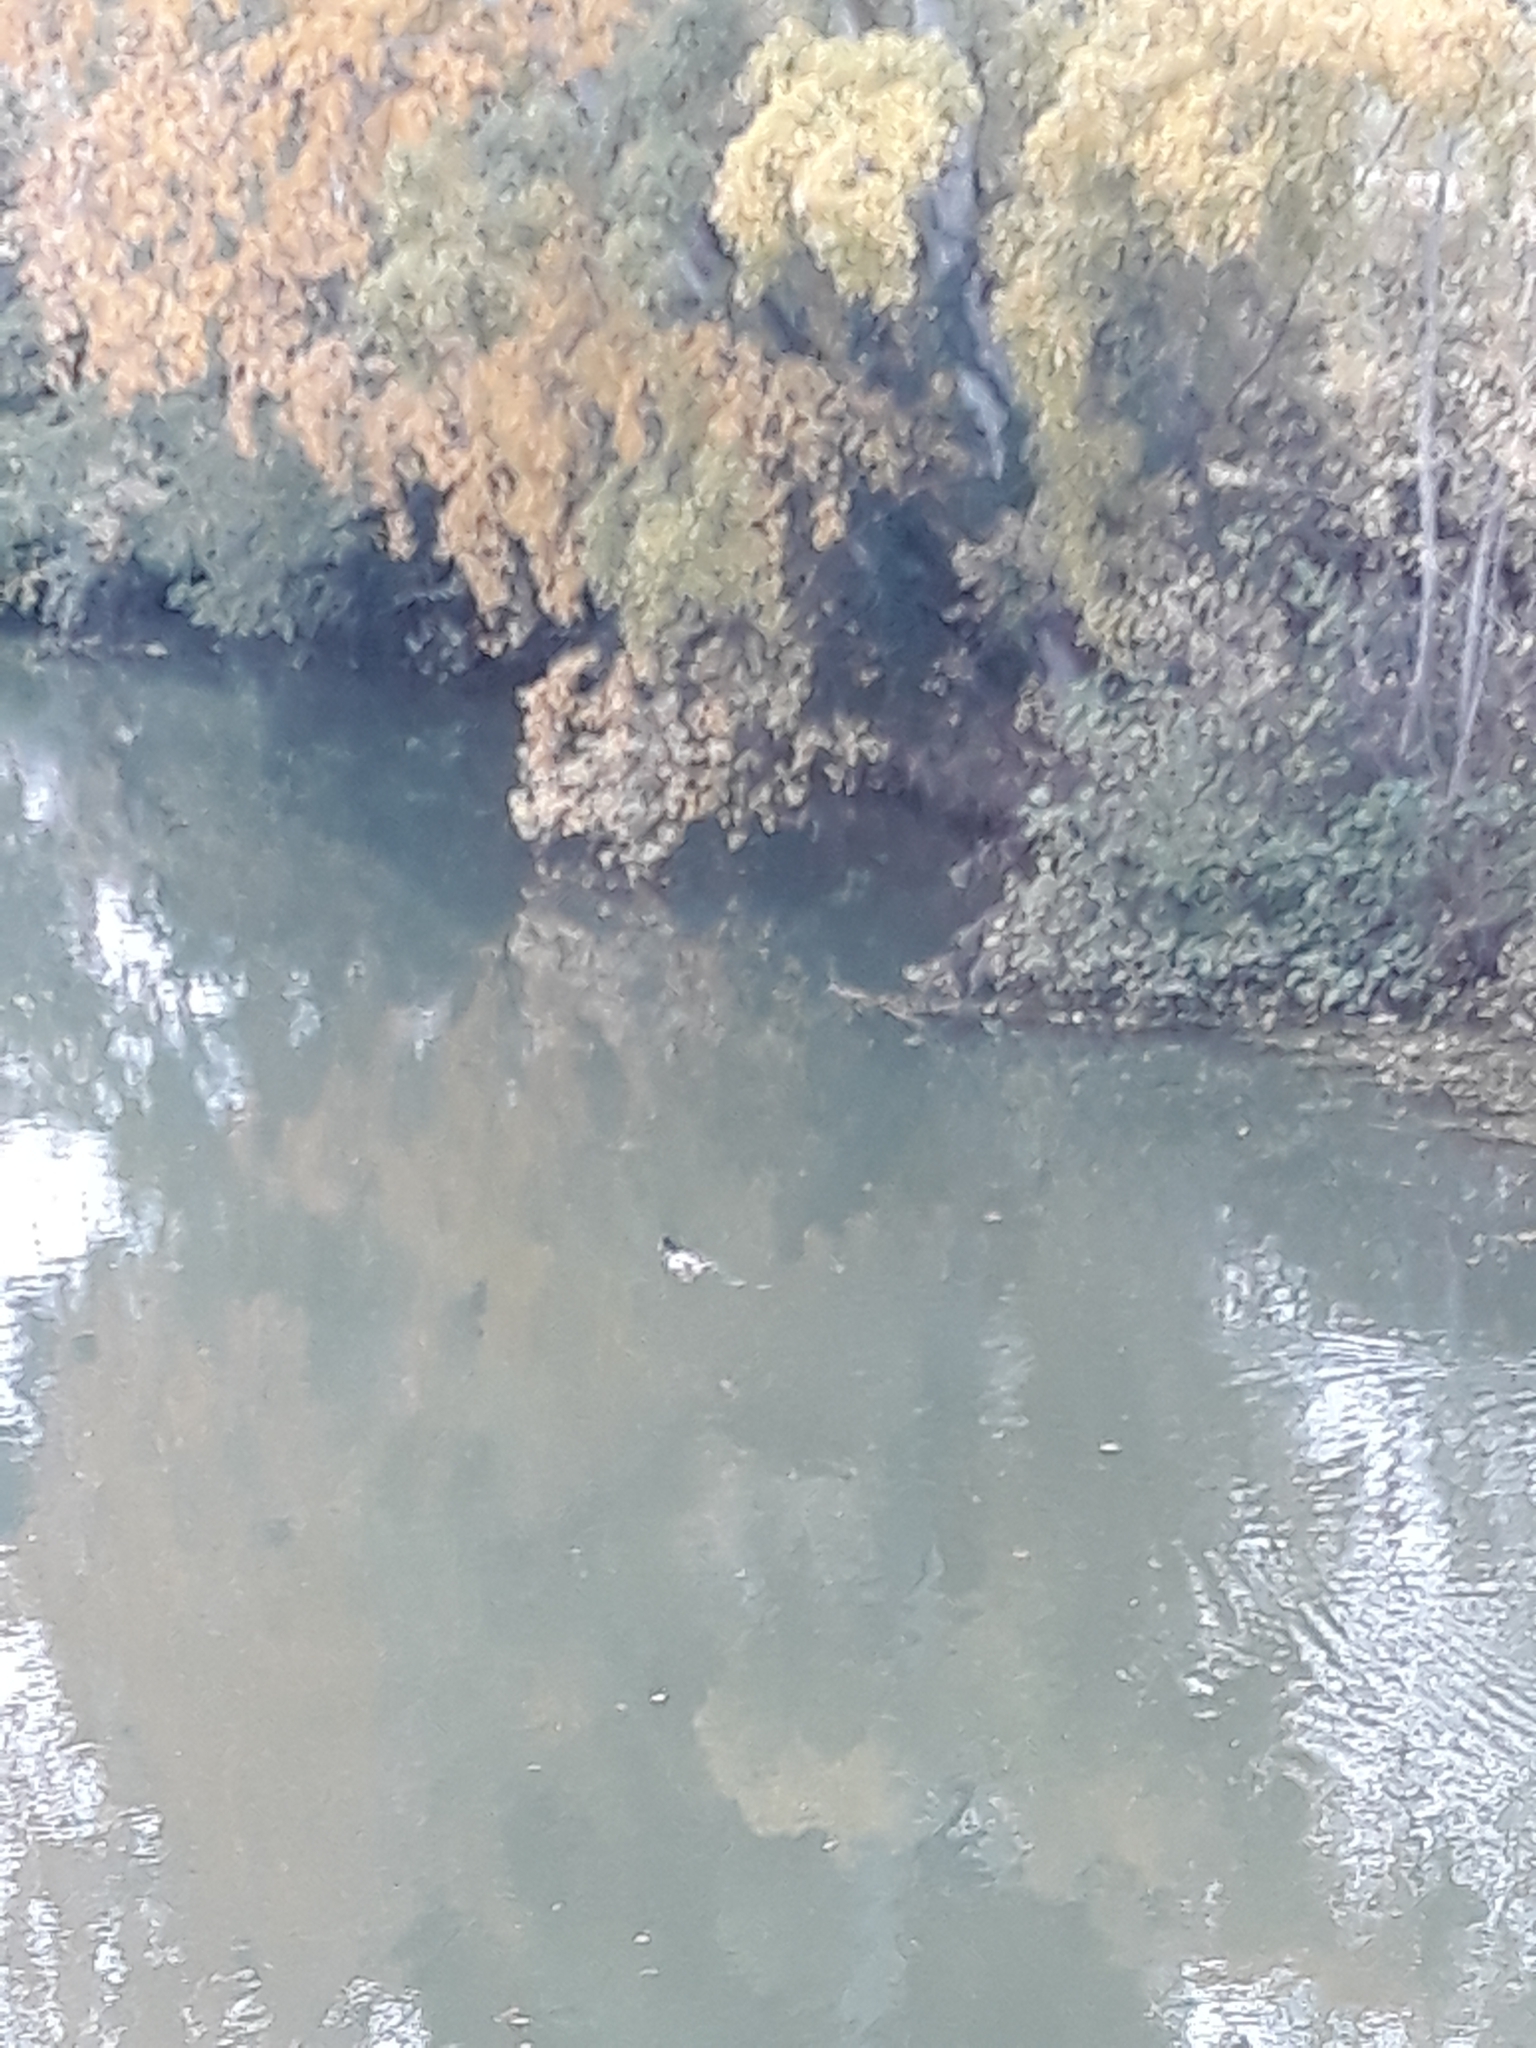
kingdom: Animalia
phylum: Chordata
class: Aves
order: Anseriformes
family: Anatidae
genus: Anas
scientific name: Anas platyrhynchos
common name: Mallard
